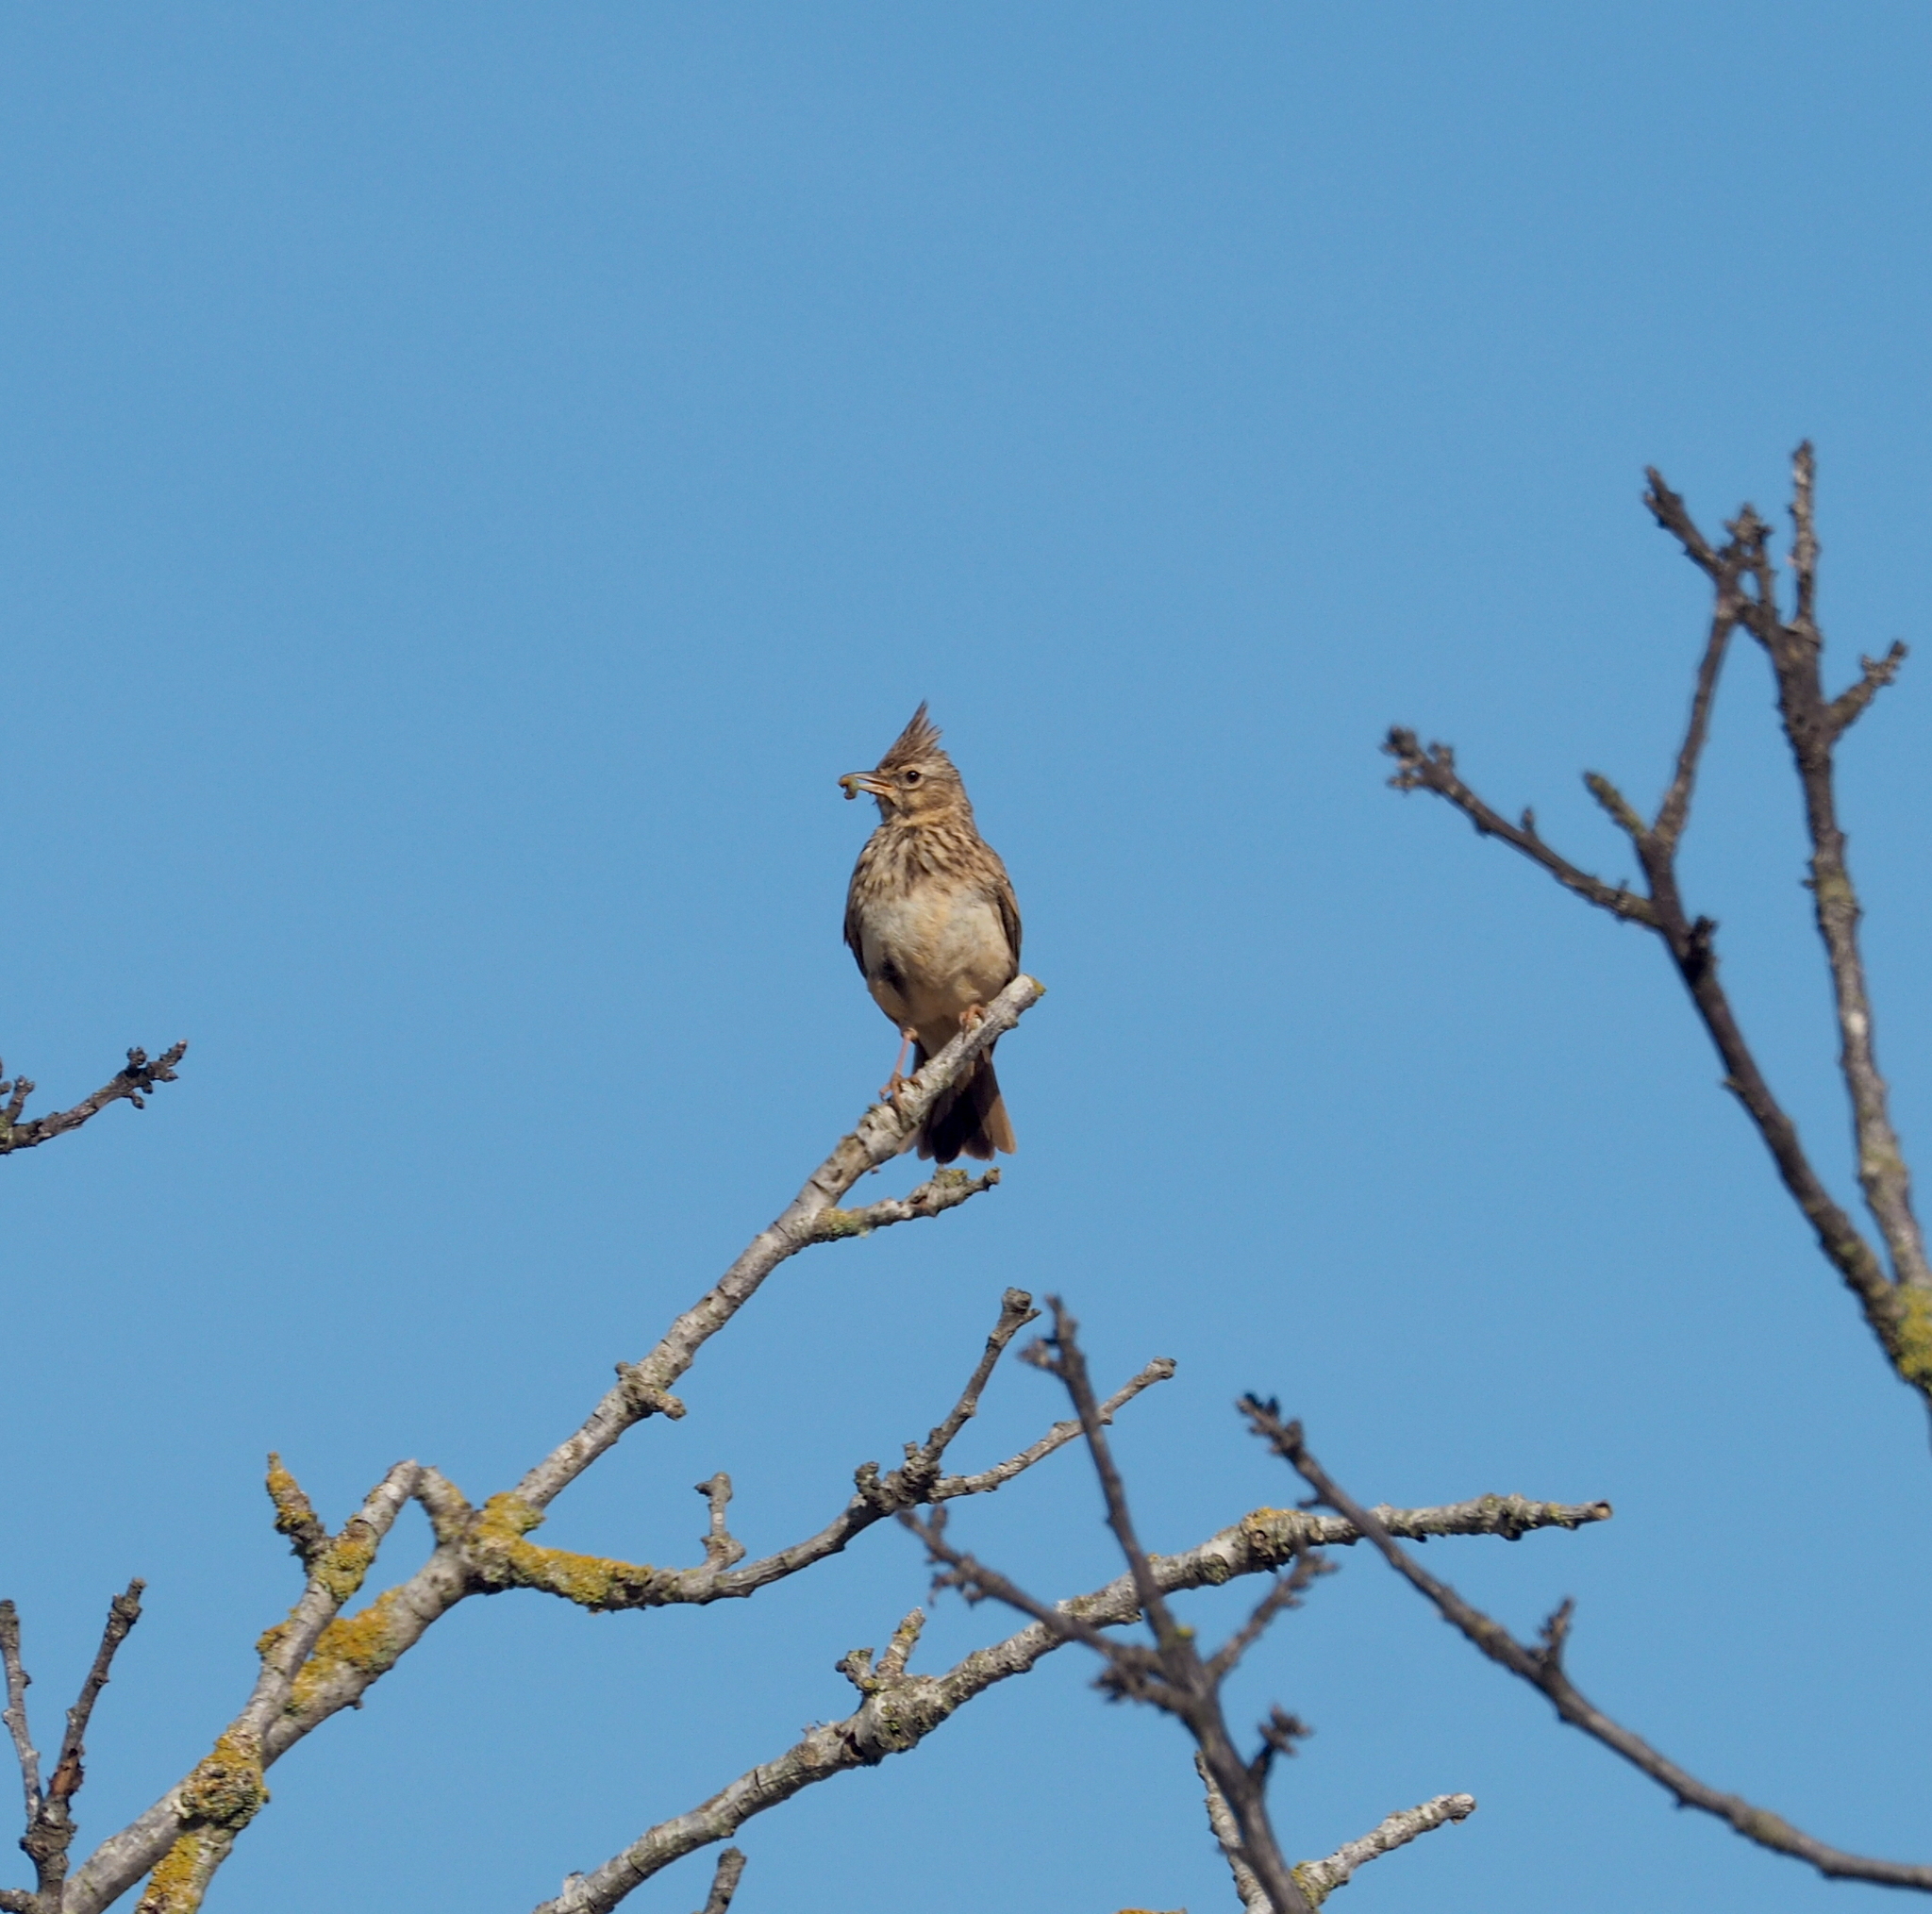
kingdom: Animalia
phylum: Chordata
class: Aves
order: Passeriformes
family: Alaudidae
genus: Galerida
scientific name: Galerida theklae
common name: Thekla lark
